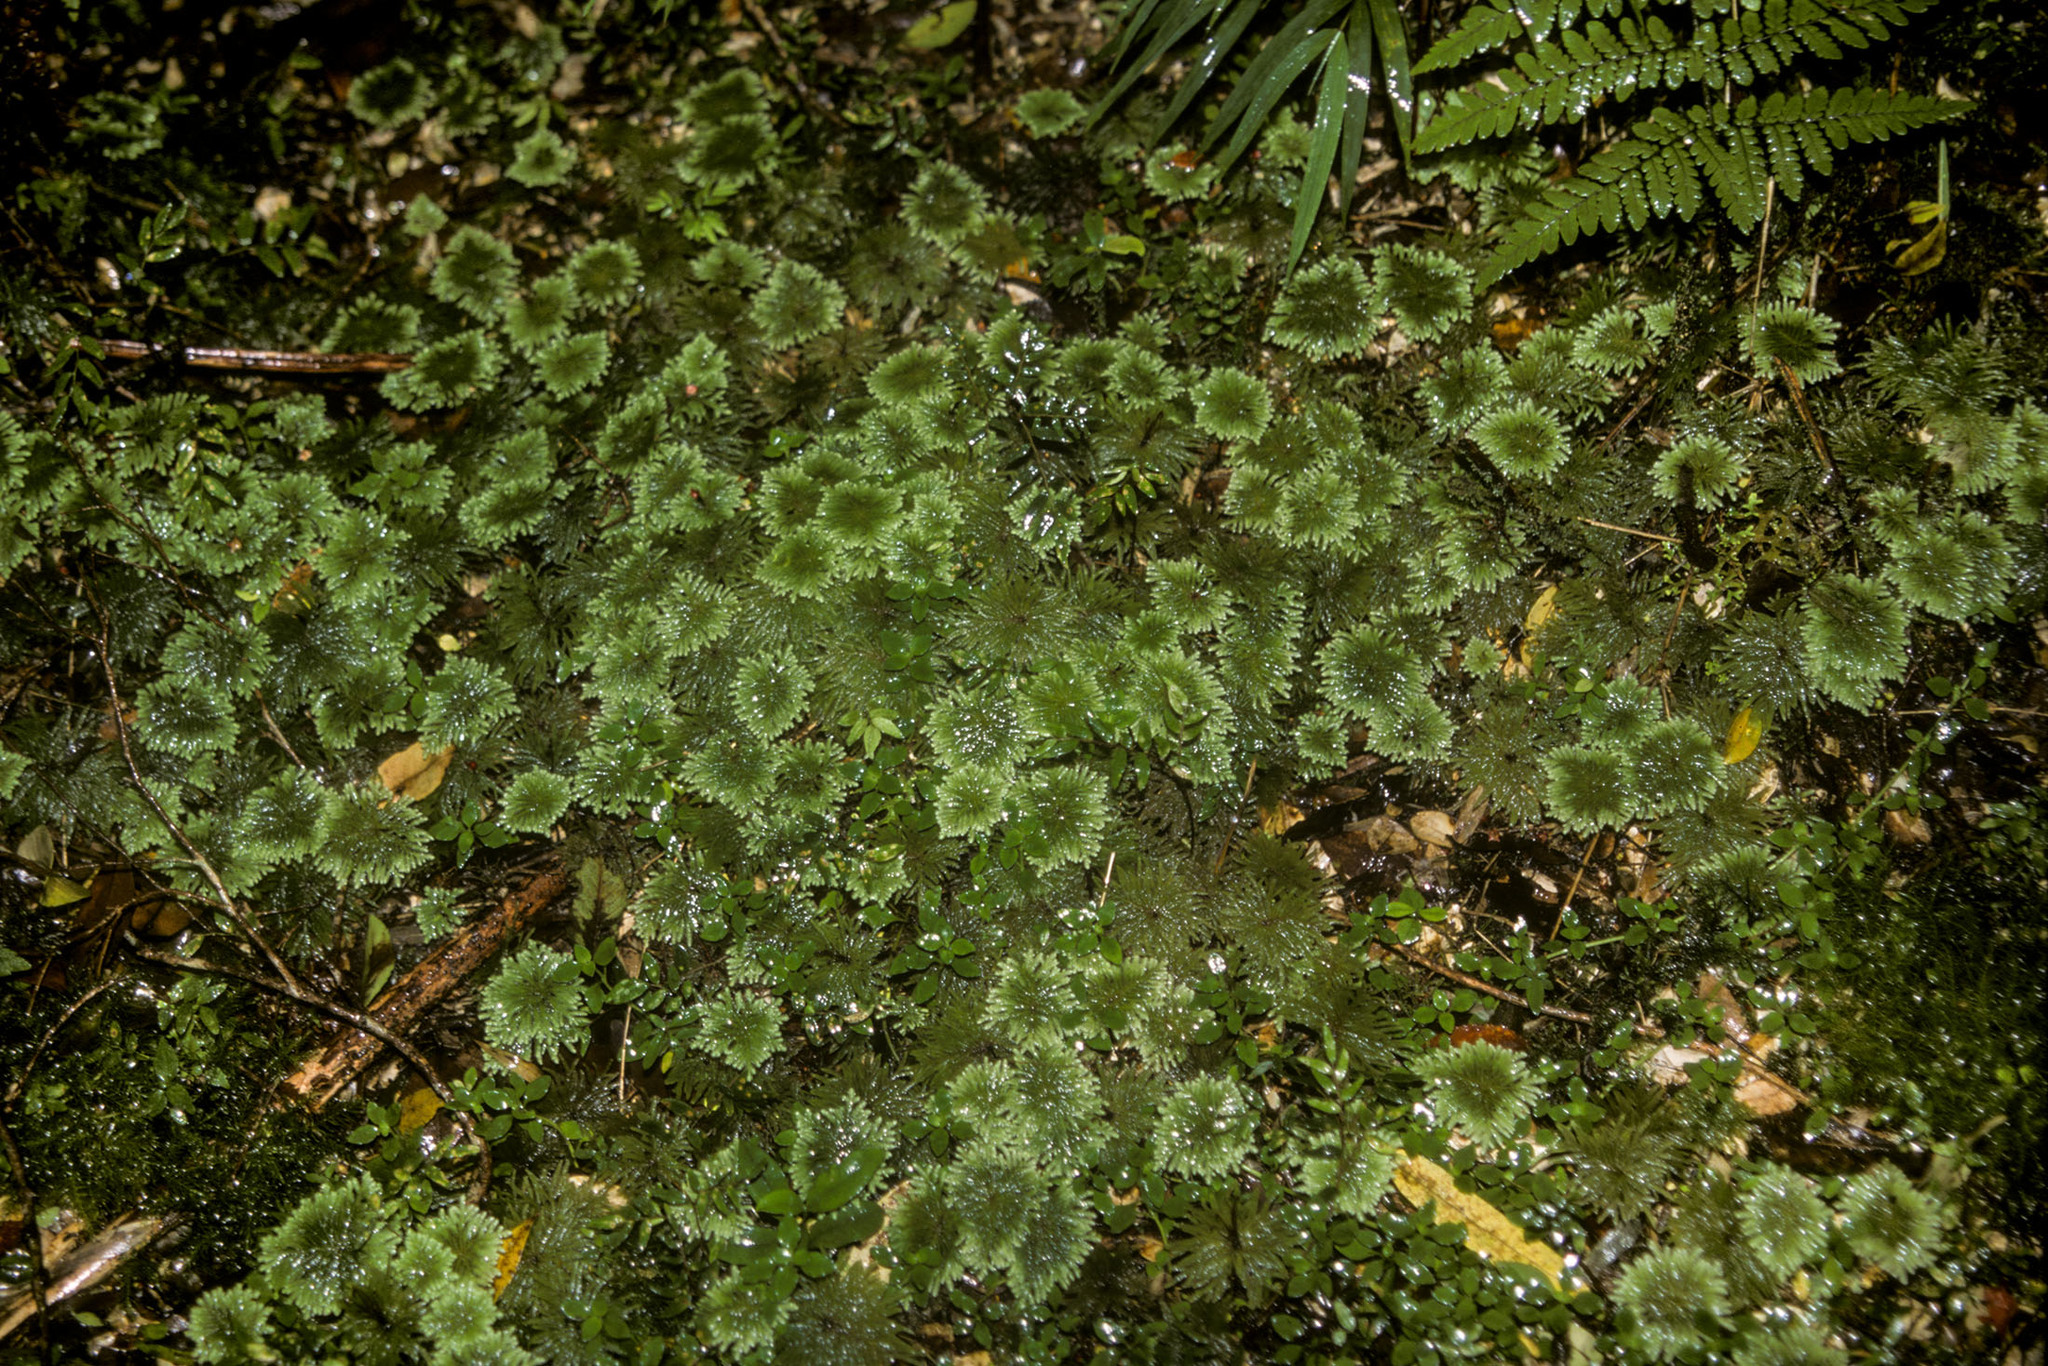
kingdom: Plantae
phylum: Bryophyta
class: Bryopsida
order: Hypopterygiales
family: Hypopterygiaceae
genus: Arbusculohypopterygium
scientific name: Arbusculohypopterygium arbuscula
